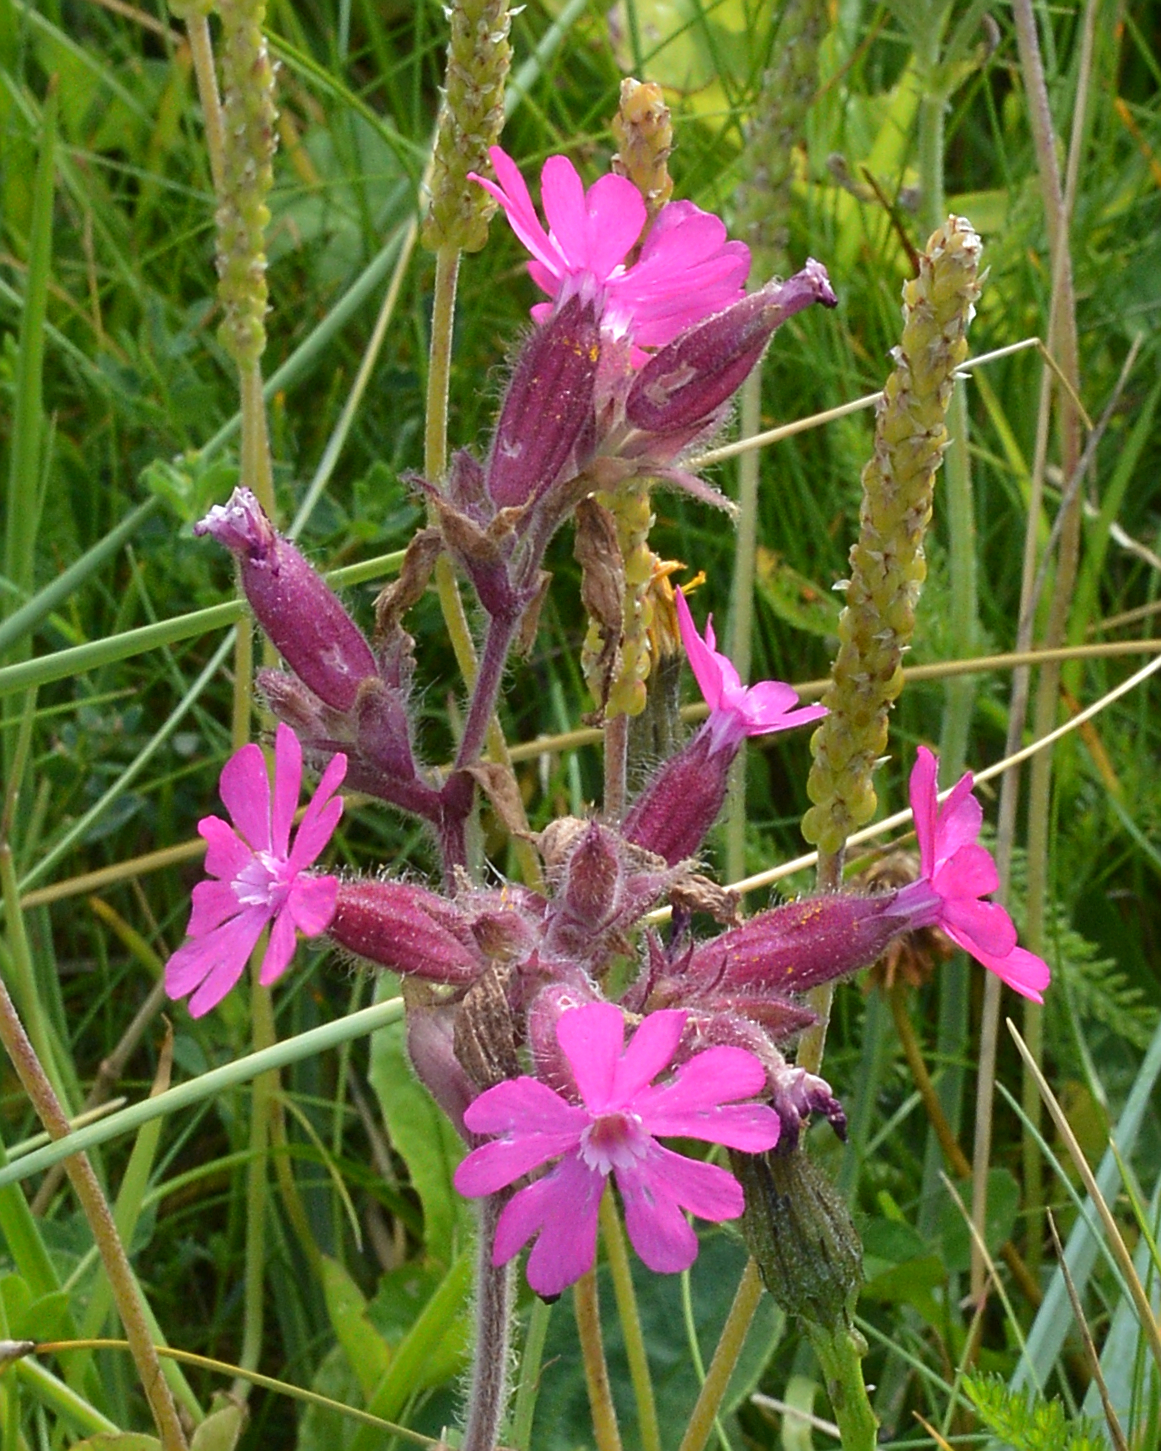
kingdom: Plantae
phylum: Tracheophyta
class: Magnoliopsida
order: Caryophyllales
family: Caryophyllaceae
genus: Silene
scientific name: Silene dioica
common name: Red campion
